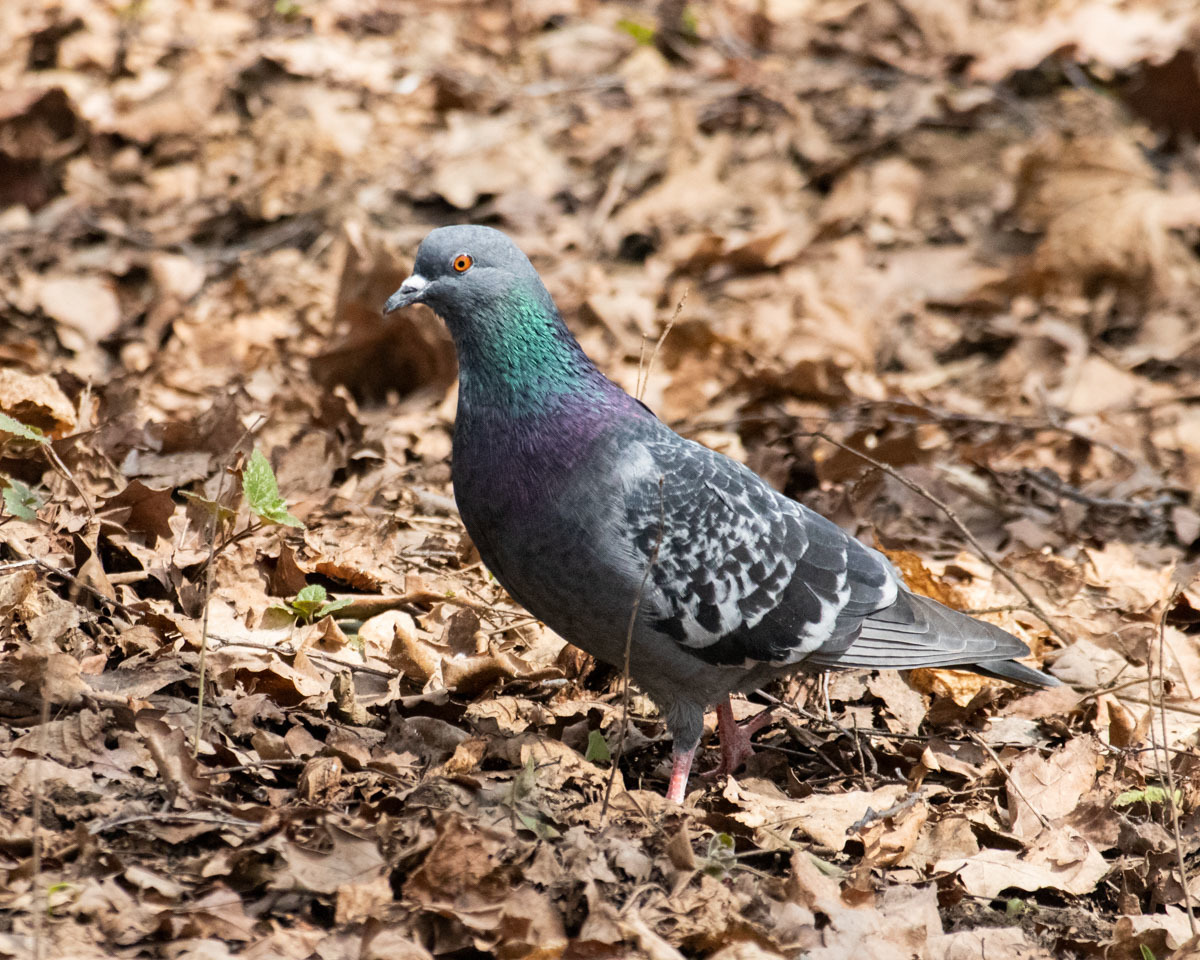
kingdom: Animalia
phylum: Chordata
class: Aves
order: Columbiformes
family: Columbidae
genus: Columba
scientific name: Columba livia
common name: Rock pigeon
